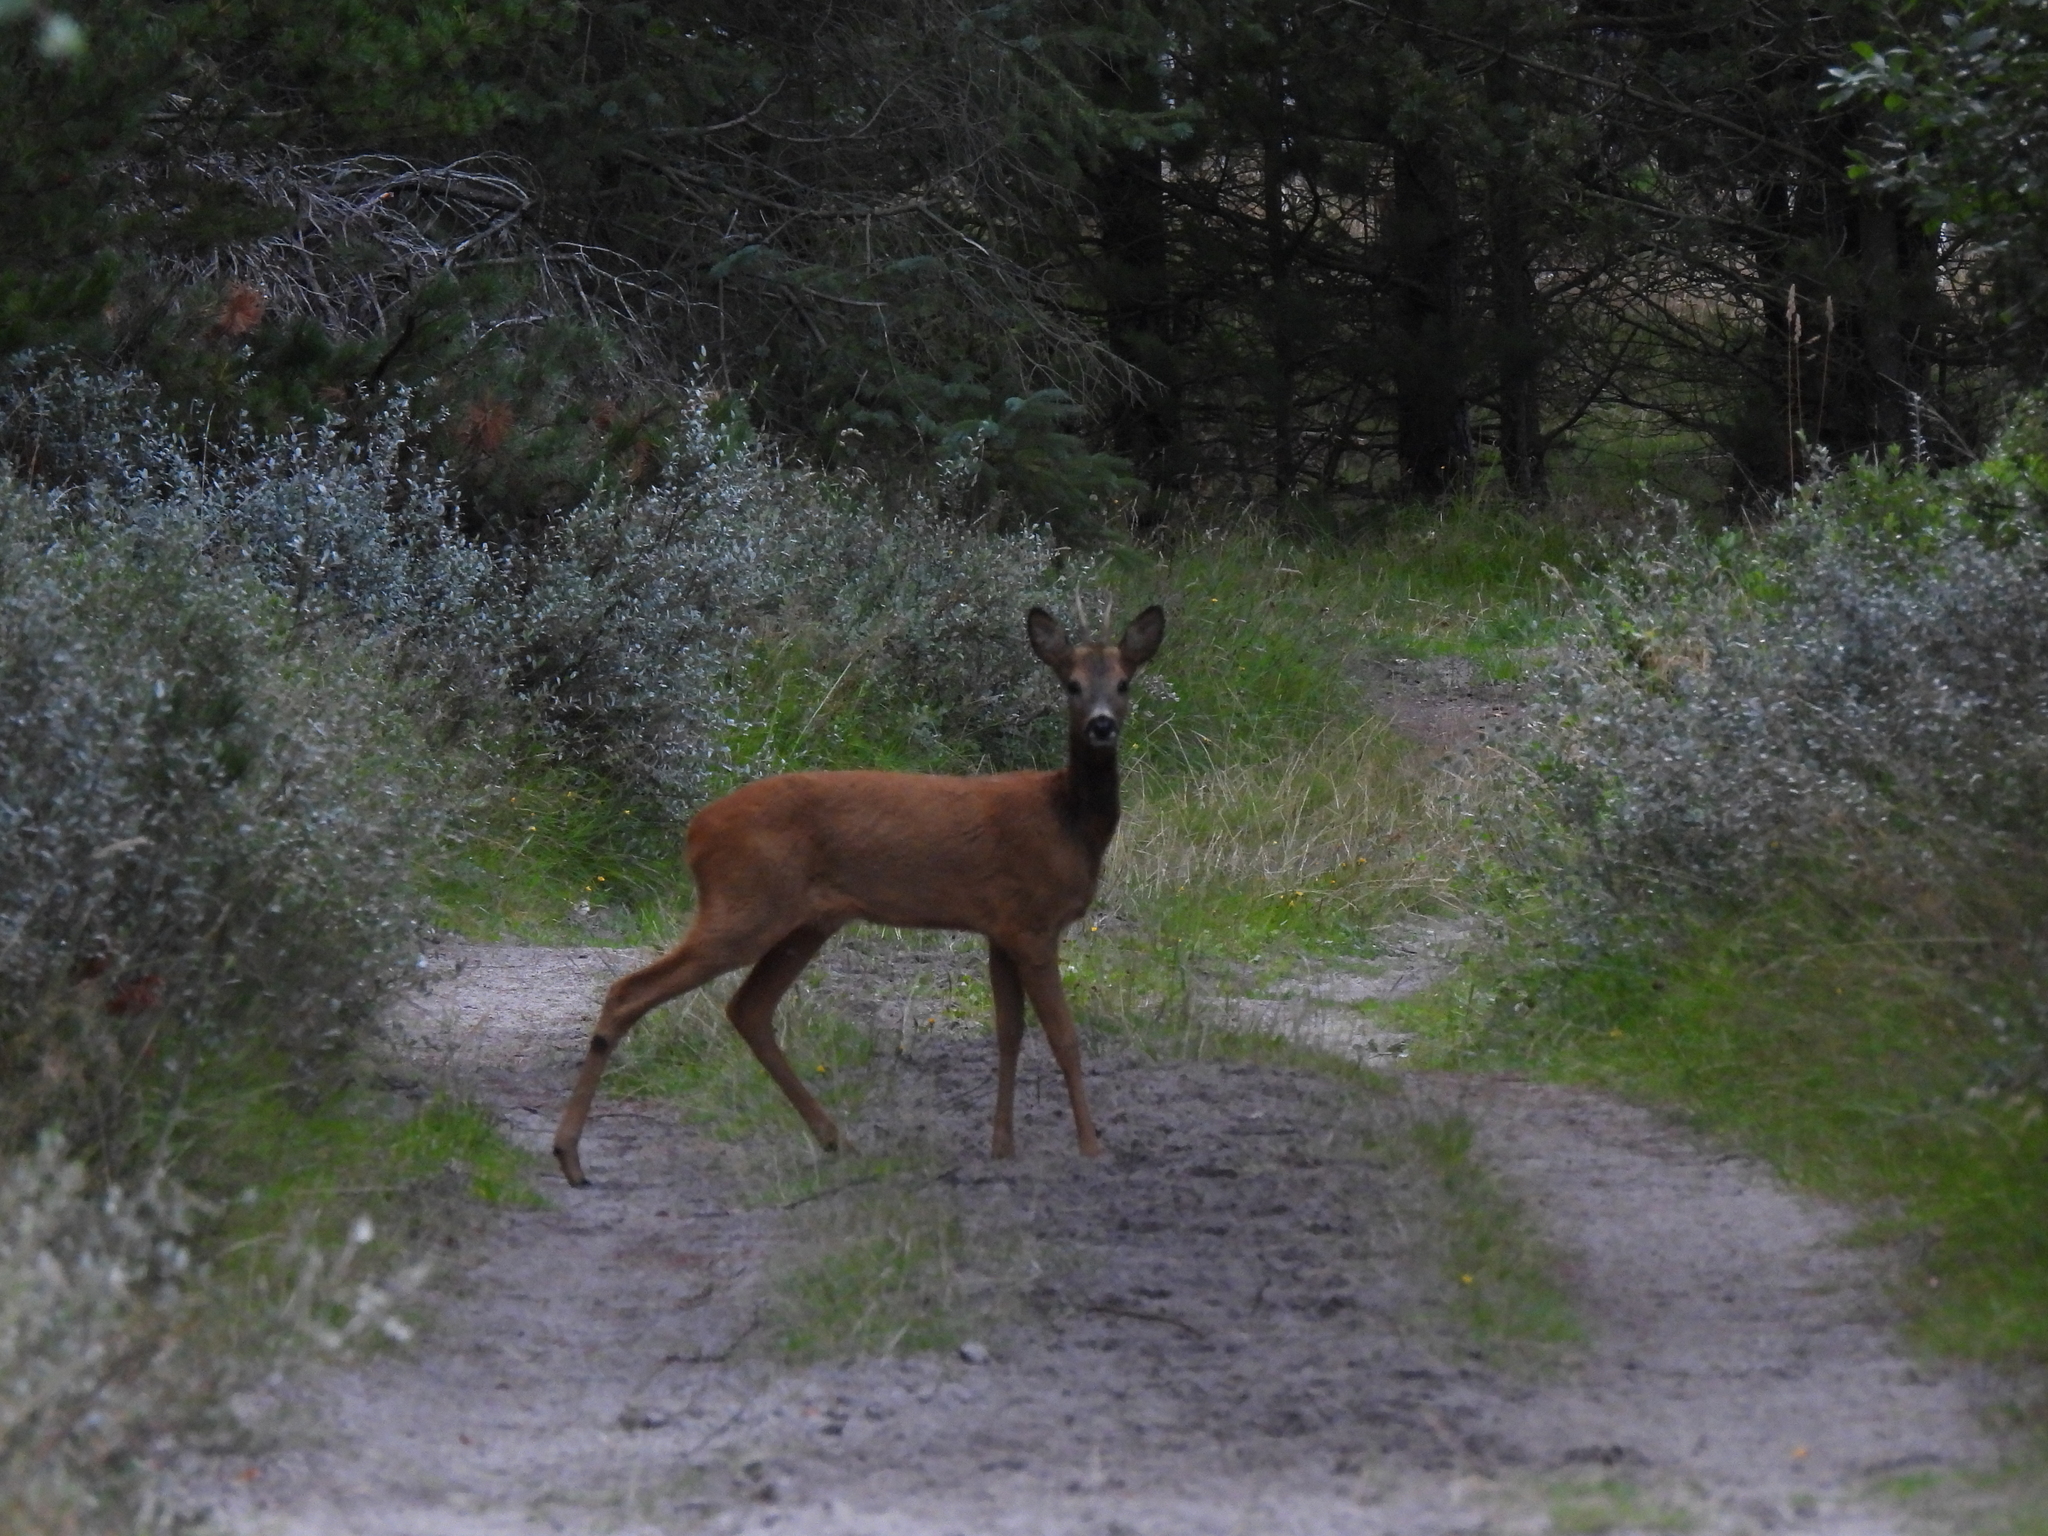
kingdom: Animalia
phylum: Chordata
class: Mammalia
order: Artiodactyla
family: Cervidae
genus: Capreolus
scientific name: Capreolus capreolus
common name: Western roe deer
